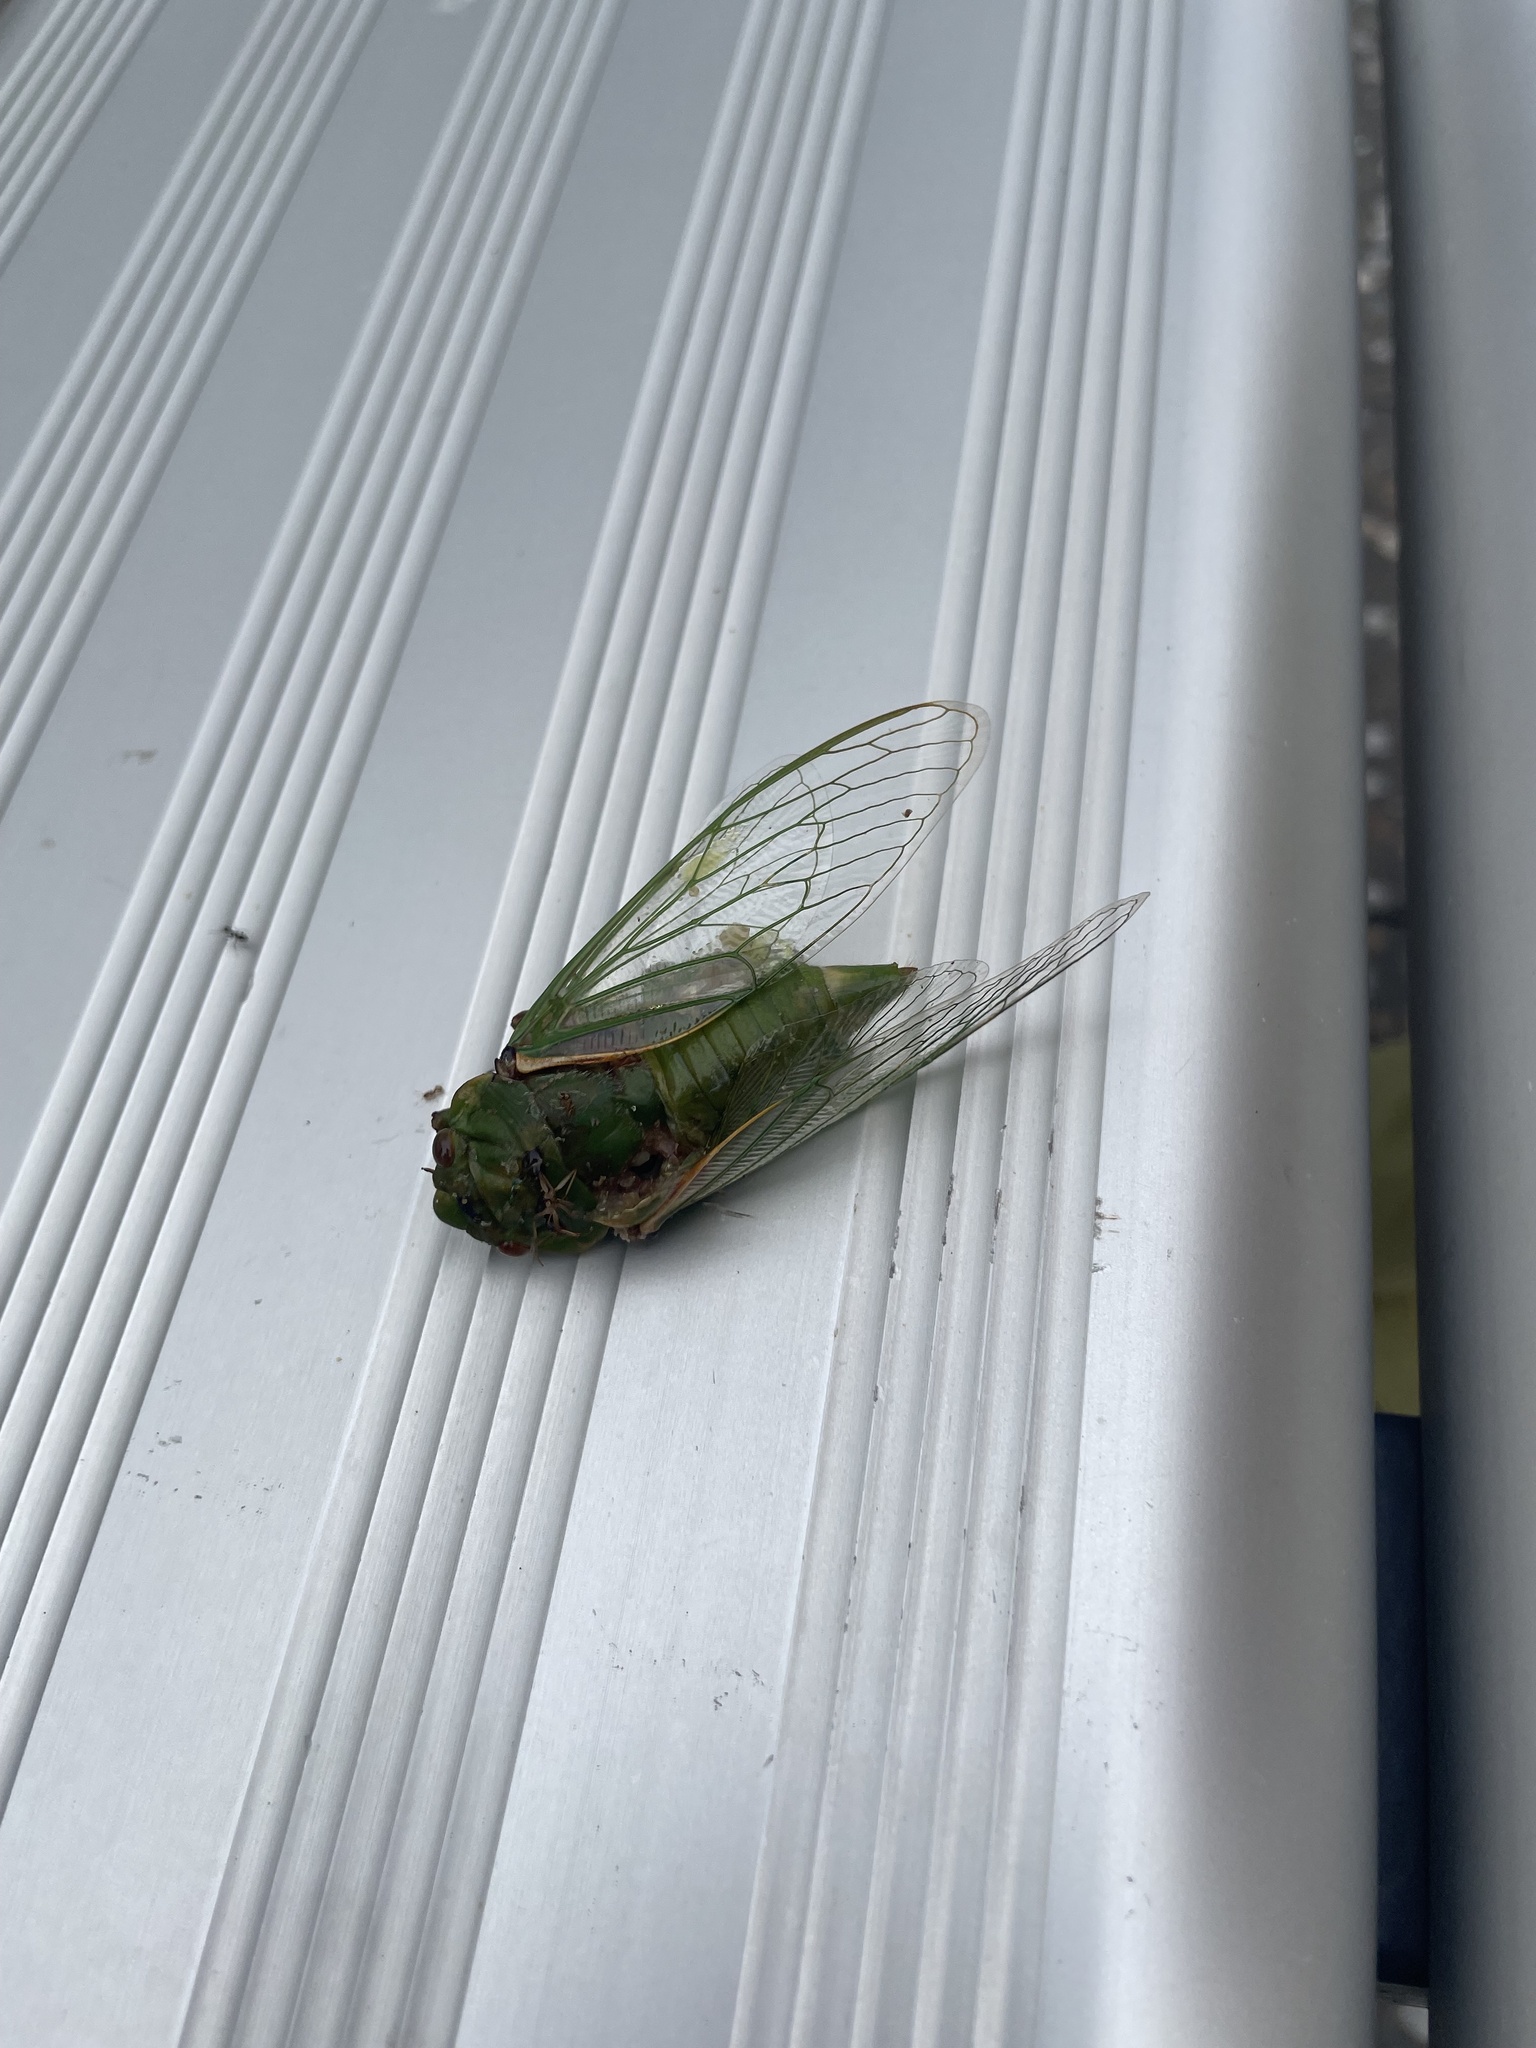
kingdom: Animalia
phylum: Arthropoda
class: Insecta
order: Hemiptera
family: Cicadidae
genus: Cyclochila
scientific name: Cyclochila australasiae
